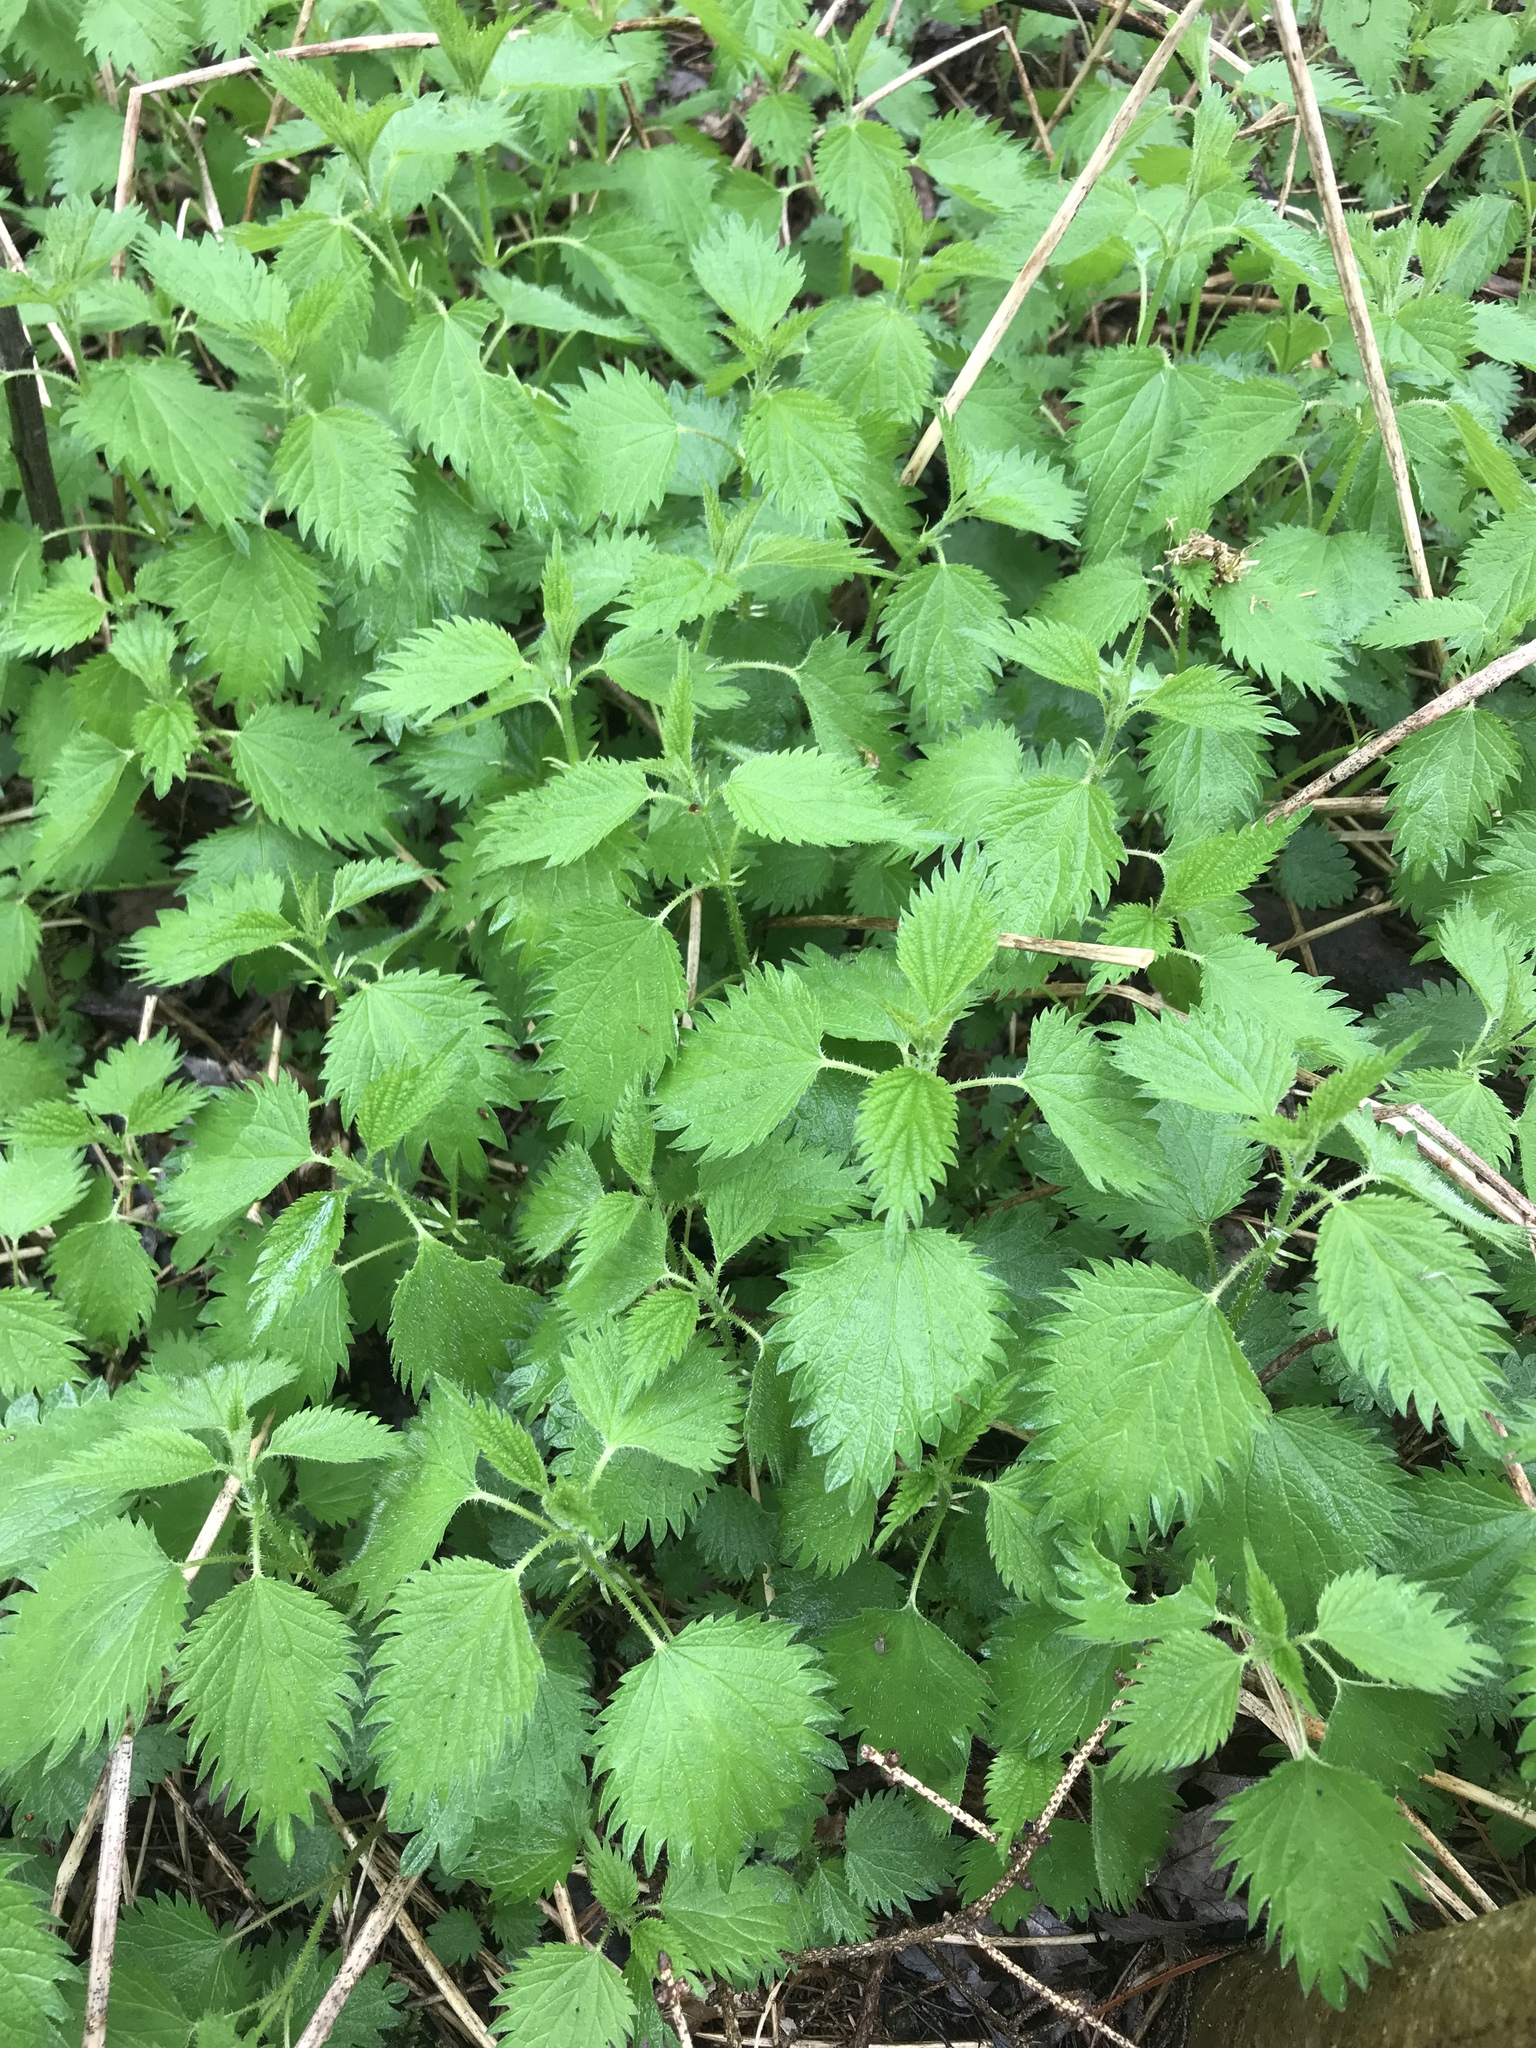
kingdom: Plantae
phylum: Tracheophyta
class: Magnoliopsida
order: Rosales
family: Urticaceae
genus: Urtica
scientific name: Urtica dioica
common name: Common nettle
